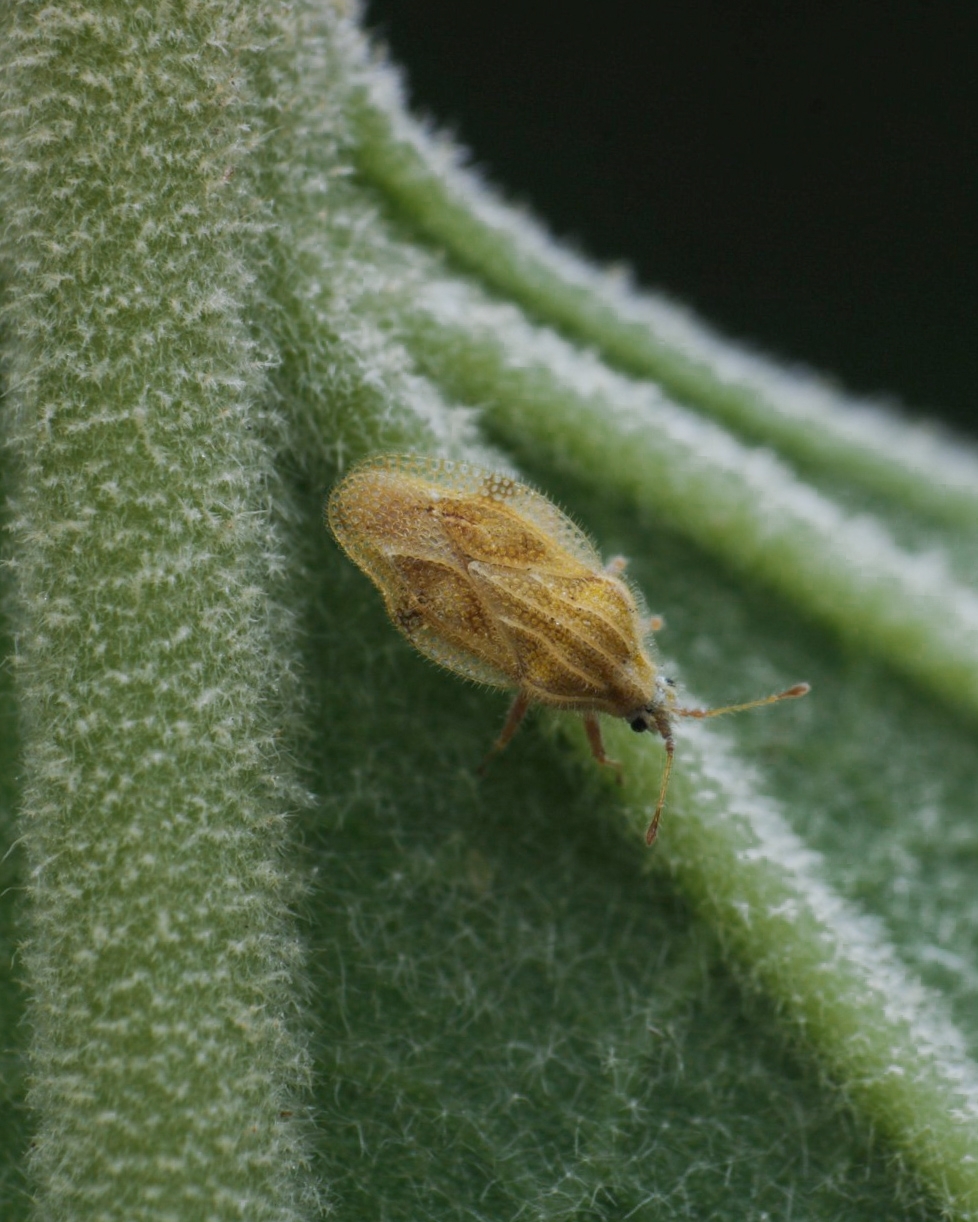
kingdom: Animalia
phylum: Arthropoda
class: Insecta
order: Hemiptera
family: Tingidae
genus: Tingis
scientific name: Tingis consaepta
